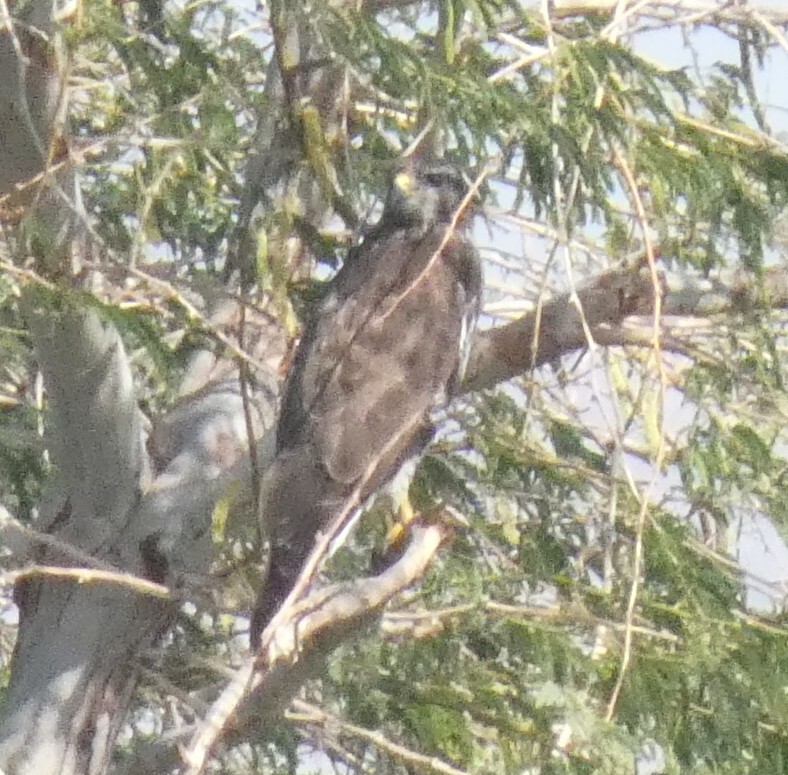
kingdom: Animalia
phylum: Chordata
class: Aves
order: Accipitriformes
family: Accipitridae
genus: Buteo
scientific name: Buteo buteo
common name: Common buzzard
